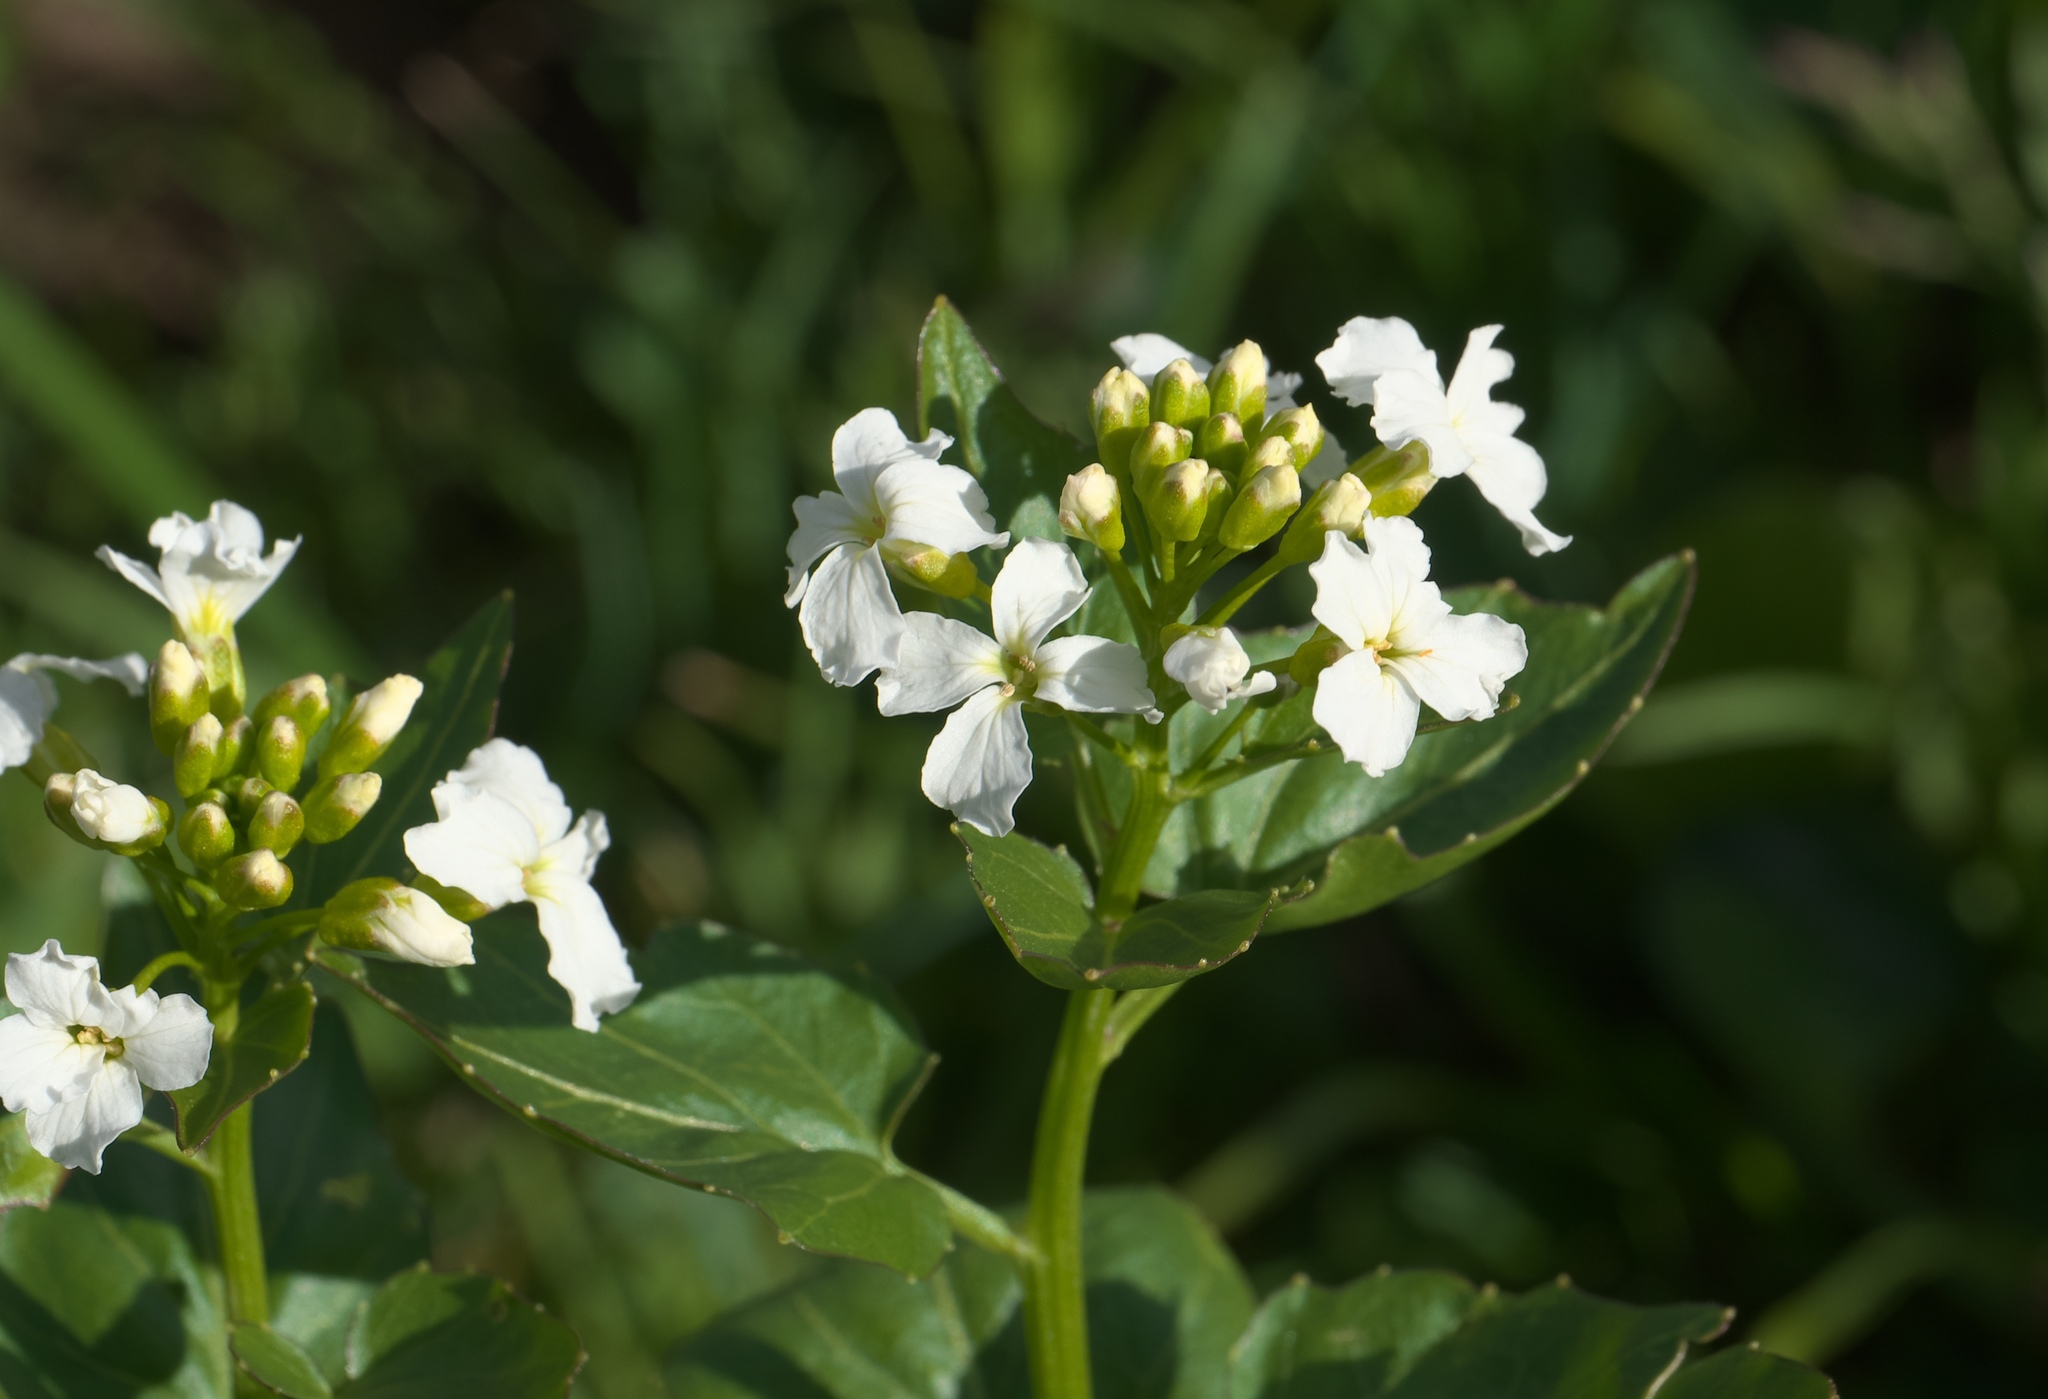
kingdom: Plantae
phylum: Tracheophyta
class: Magnoliopsida
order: Brassicales
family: Brassicaceae
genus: Cardamine
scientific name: Cardamine cordifolia
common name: Heart-leaf bittercress
